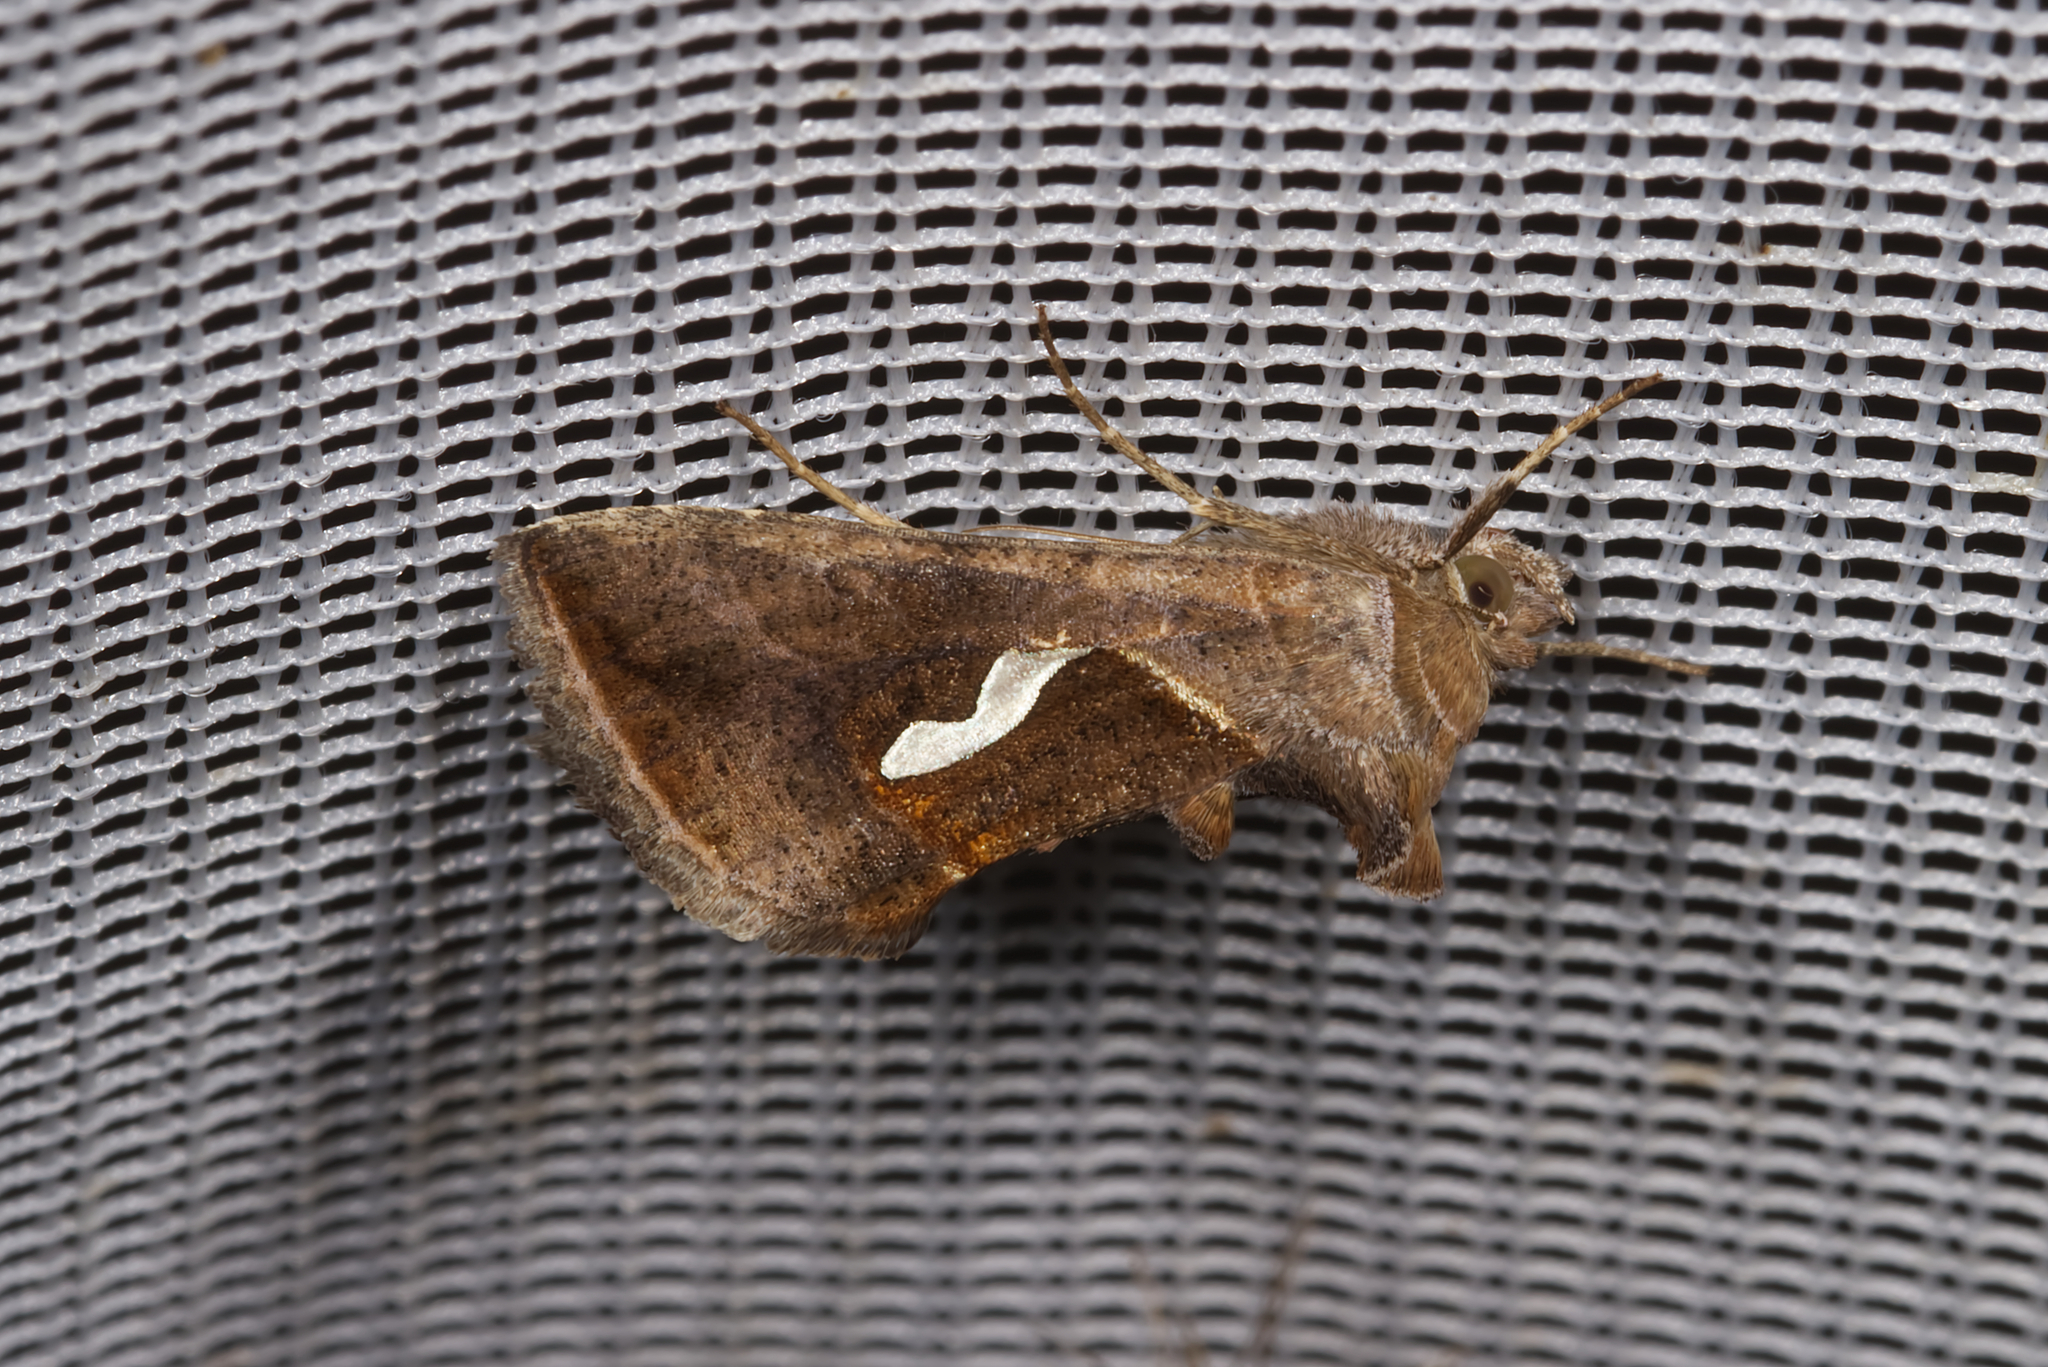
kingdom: Animalia
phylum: Arthropoda
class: Insecta
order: Lepidoptera
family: Noctuidae
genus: Macdunnoughia
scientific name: Macdunnoughia confusa
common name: Dewick's plusia
